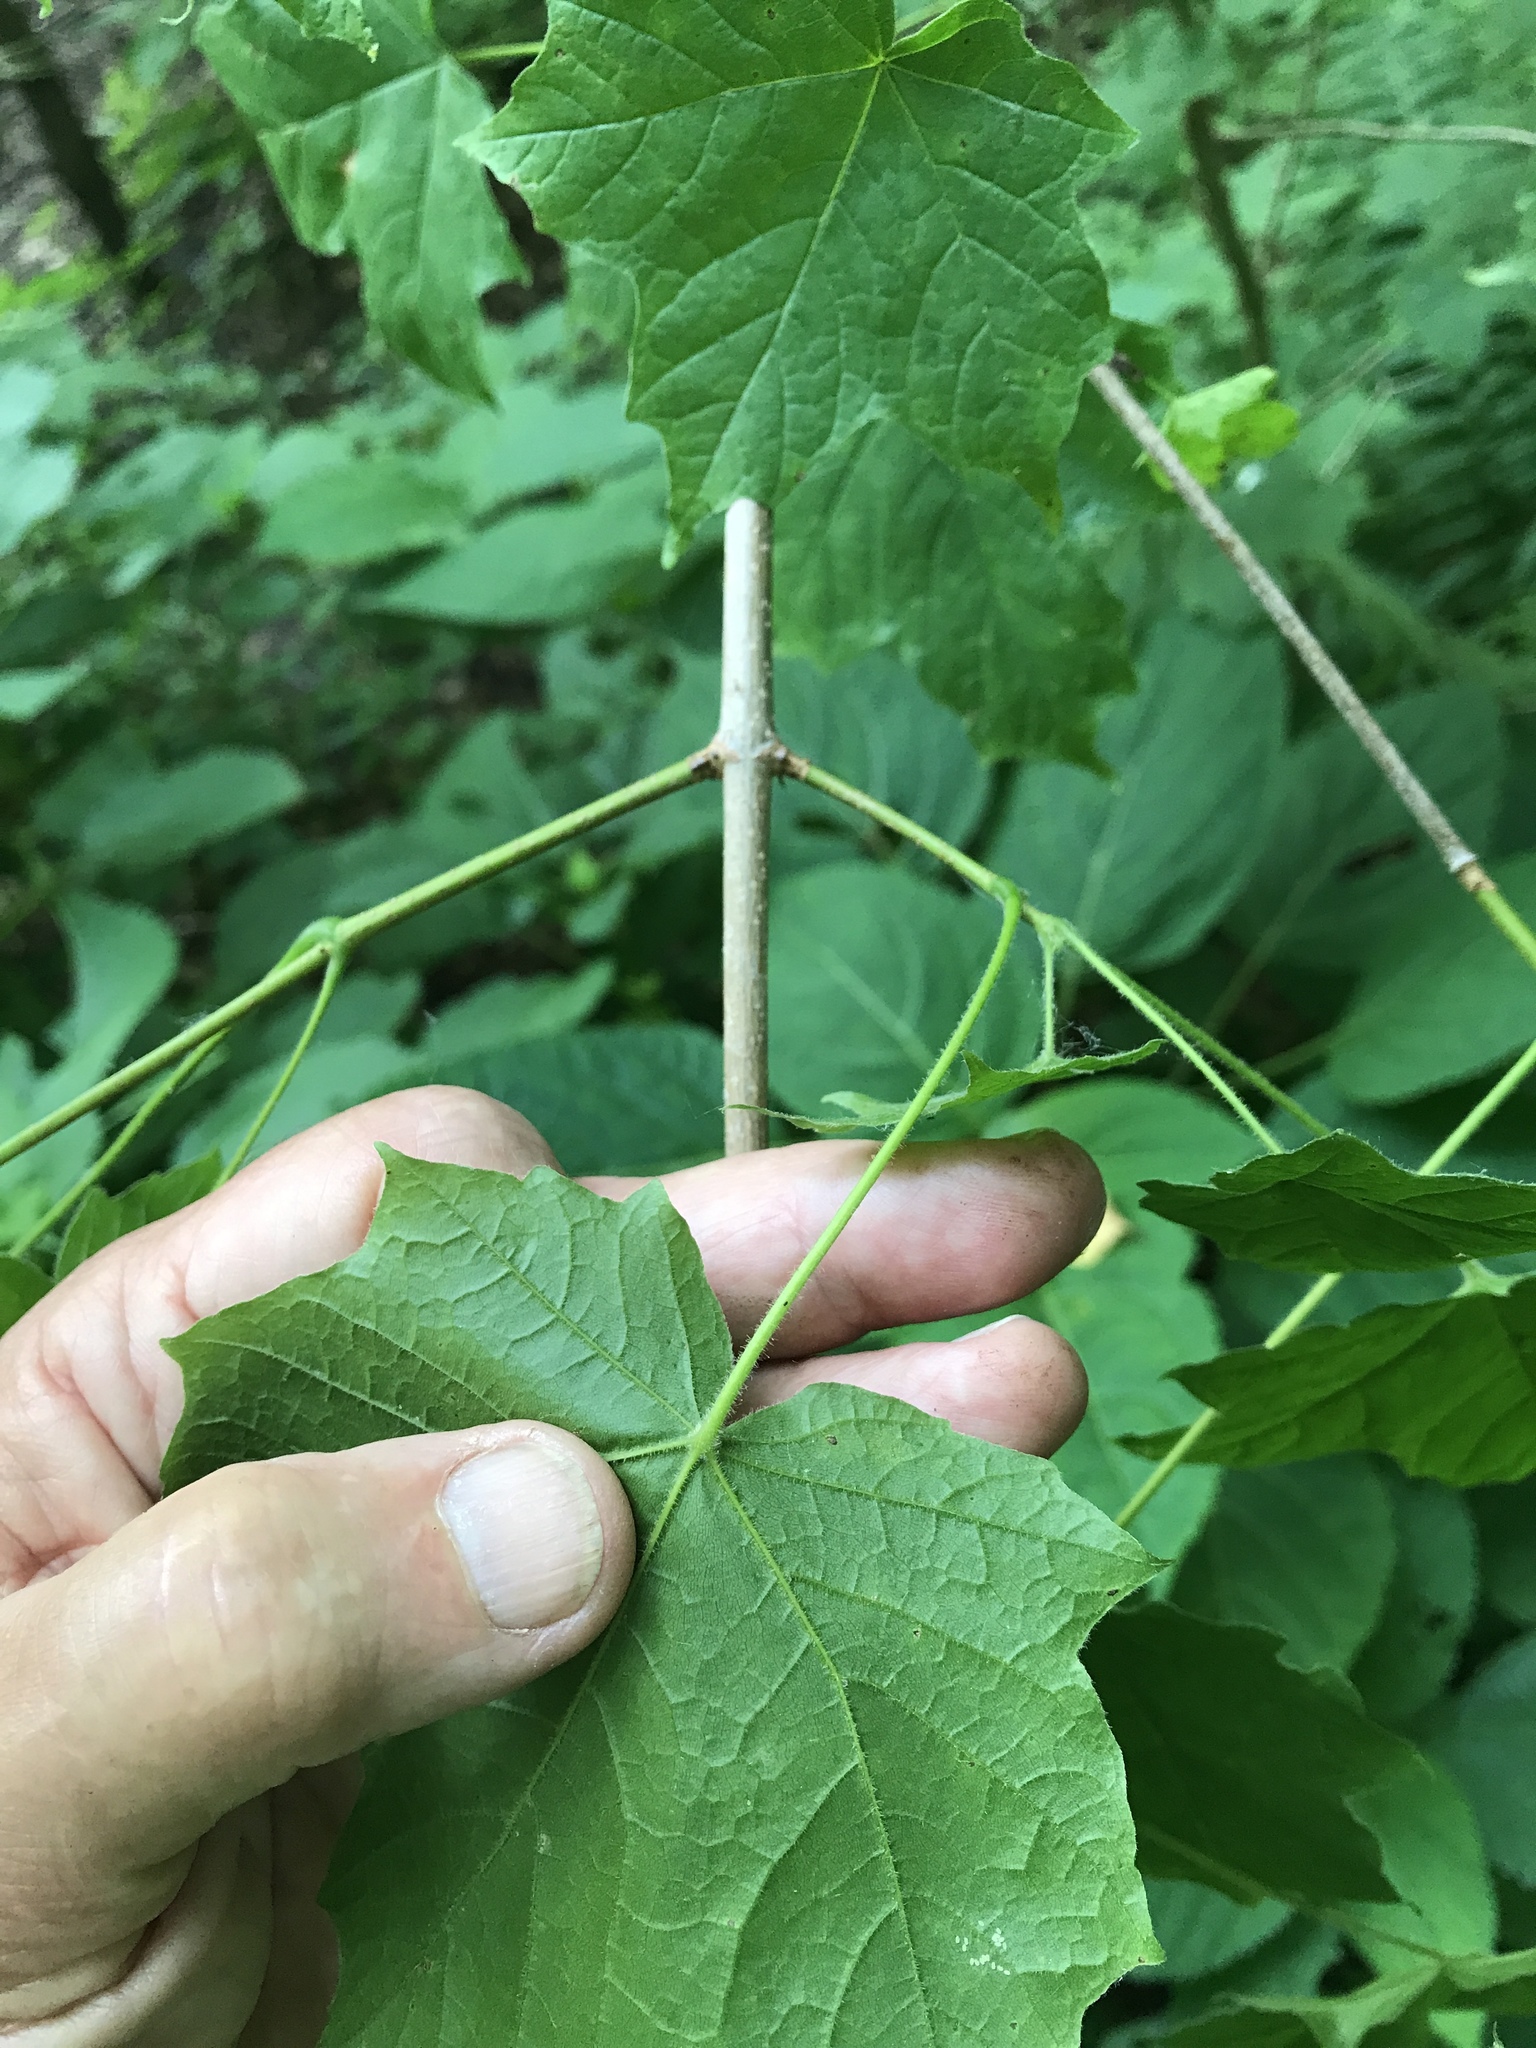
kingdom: Plantae
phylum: Tracheophyta
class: Magnoliopsida
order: Sapindales
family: Sapindaceae
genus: Acer
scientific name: Acer nigrum
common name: Black maple
